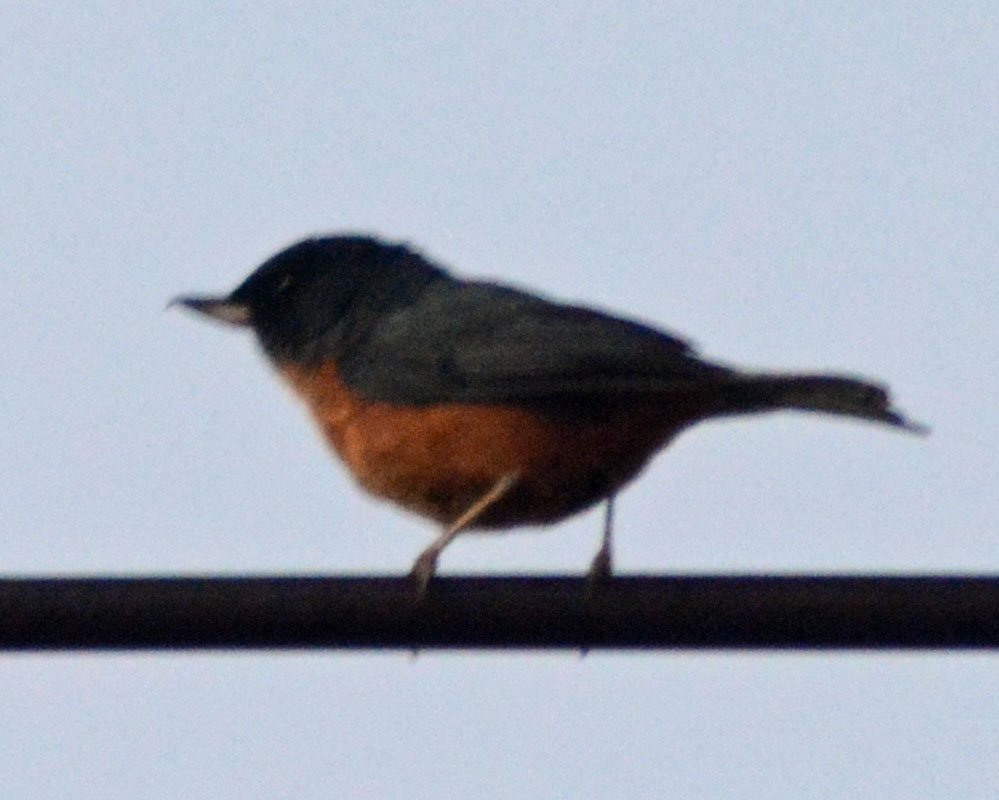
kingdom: Animalia
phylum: Chordata
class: Aves
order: Passeriformes
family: Thraupidae
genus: Diglossa
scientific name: Diglossa baritula
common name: Cinnamon-bellied flowerpiercer
